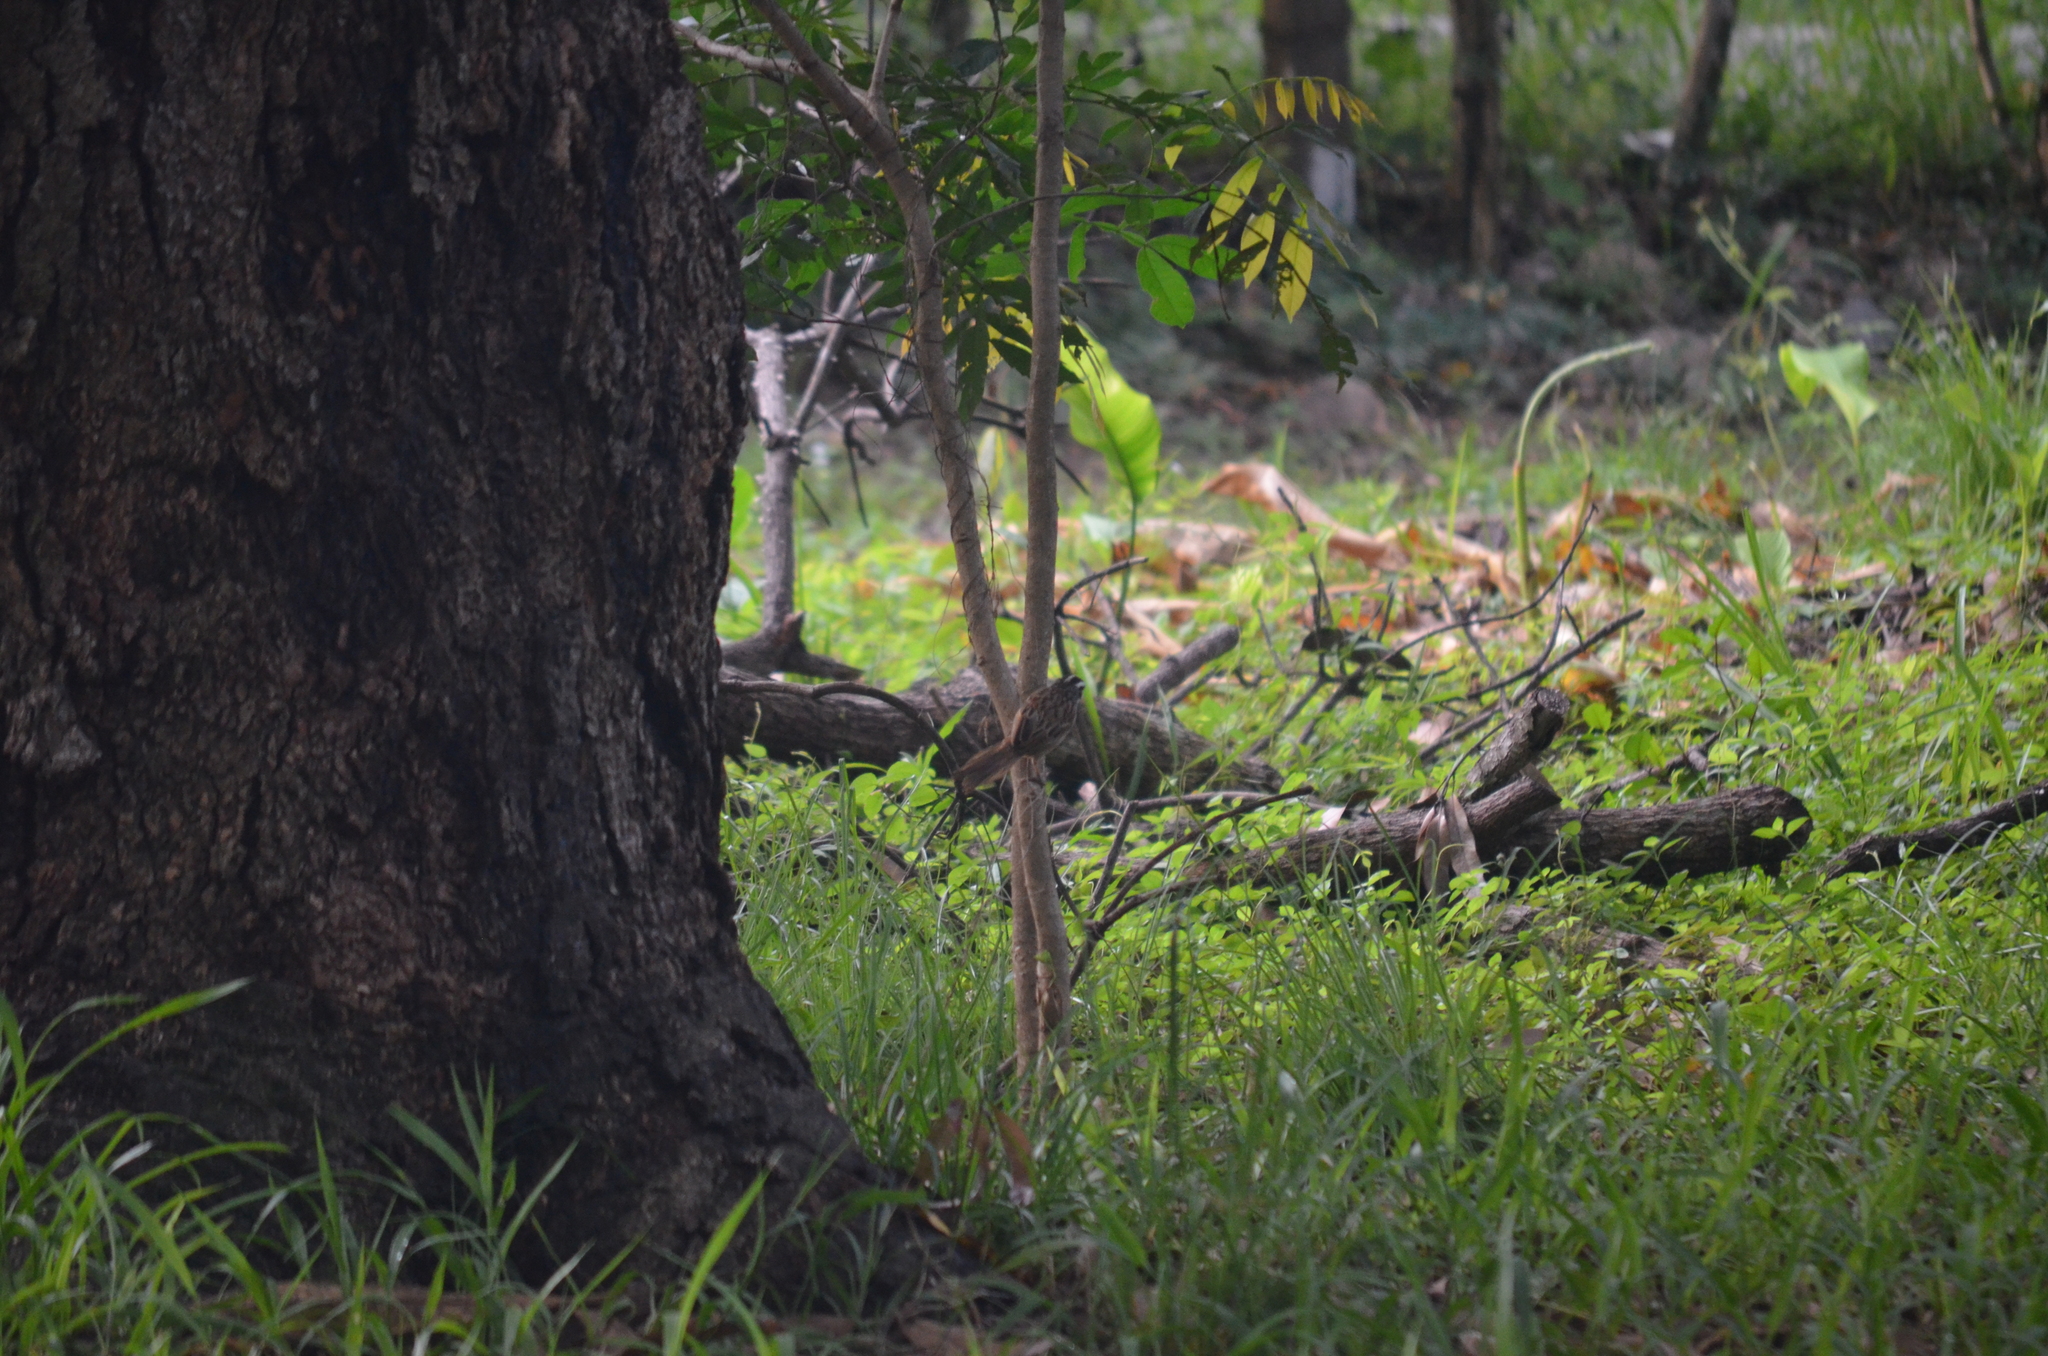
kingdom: Animalia
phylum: Chordata
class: Aves
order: Passeriformes
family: Passerellidae
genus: Peucaea
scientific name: Peucaea ruficauda
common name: Stripe-headed sparrow
